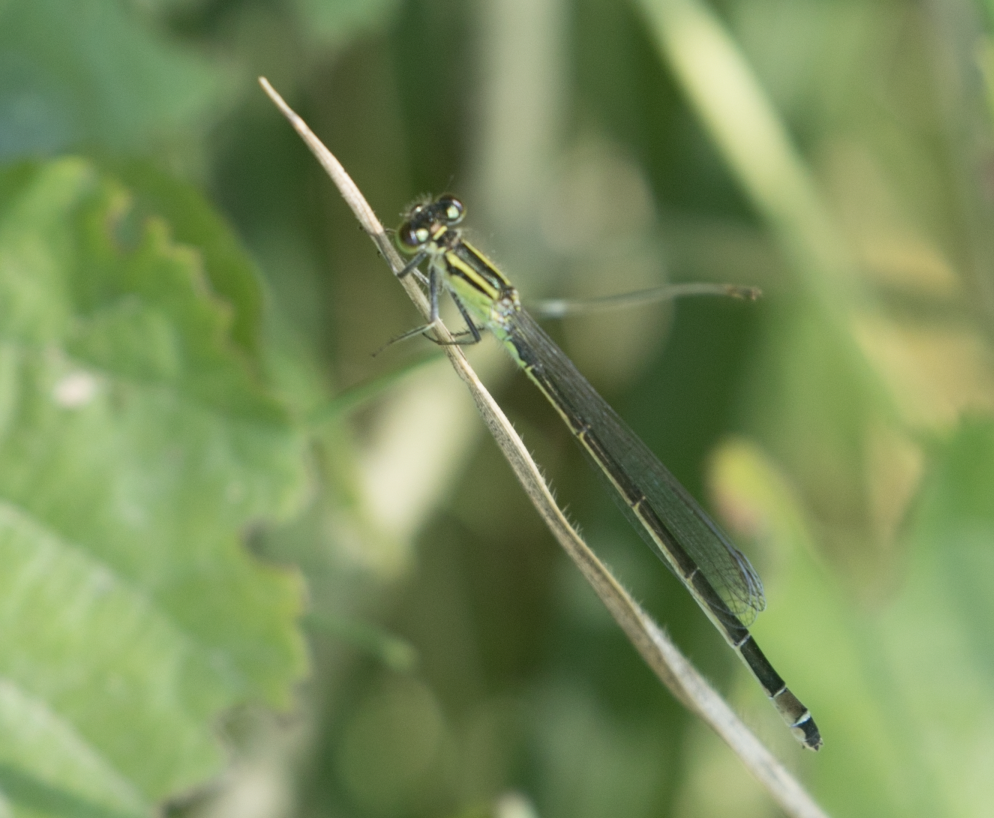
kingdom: Animalia
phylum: Arthropoda
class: Insecta
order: Odonata
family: Coenagrionidae
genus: Ischnura
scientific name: Ischnura elegans
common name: Blue-tailed damselfly
